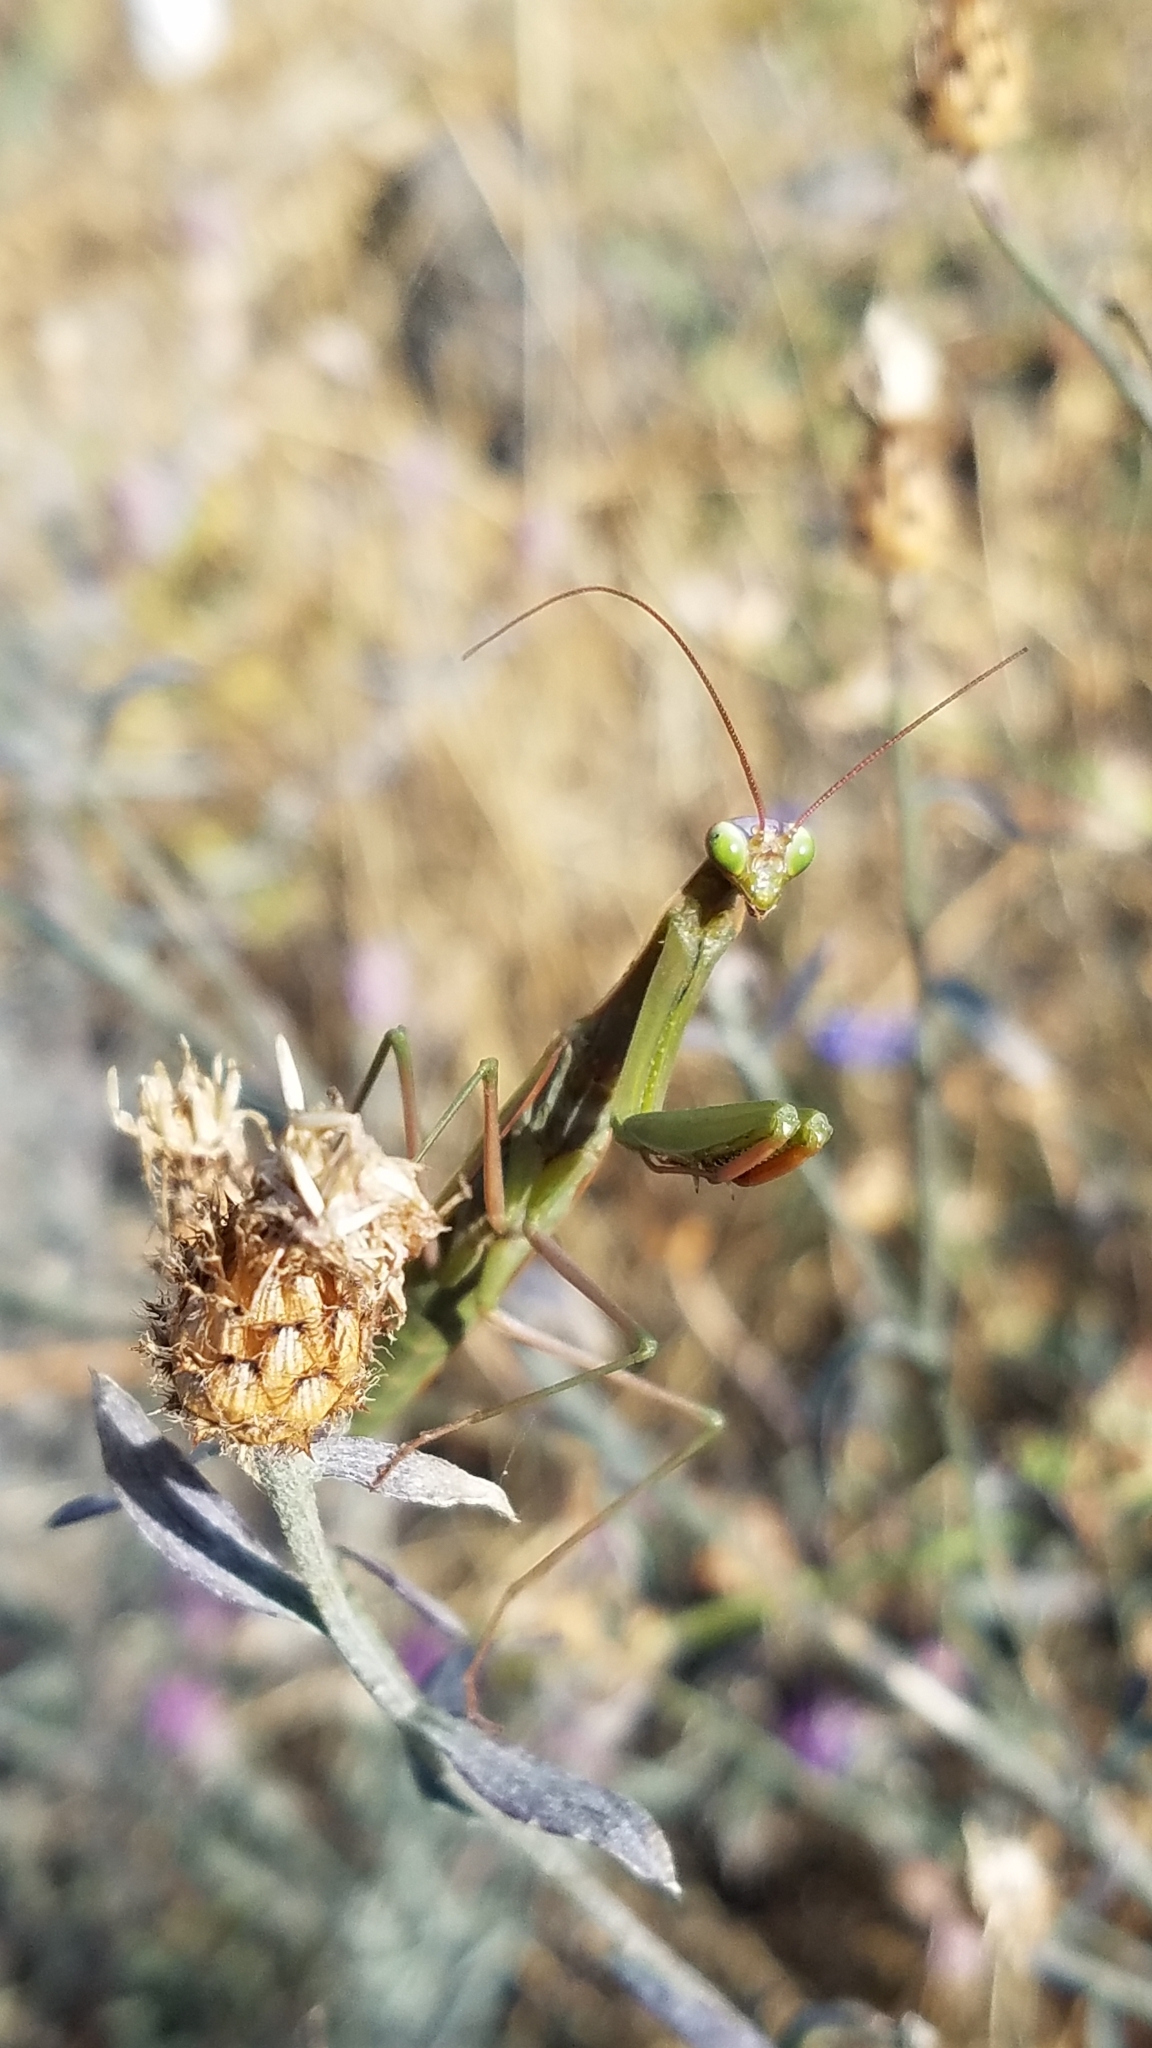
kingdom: Animalia
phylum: Arthropoda
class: Insecta
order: Mantodea
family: Mantidae
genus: Mantis
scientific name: Mantis religiosa
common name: Praying mantis
